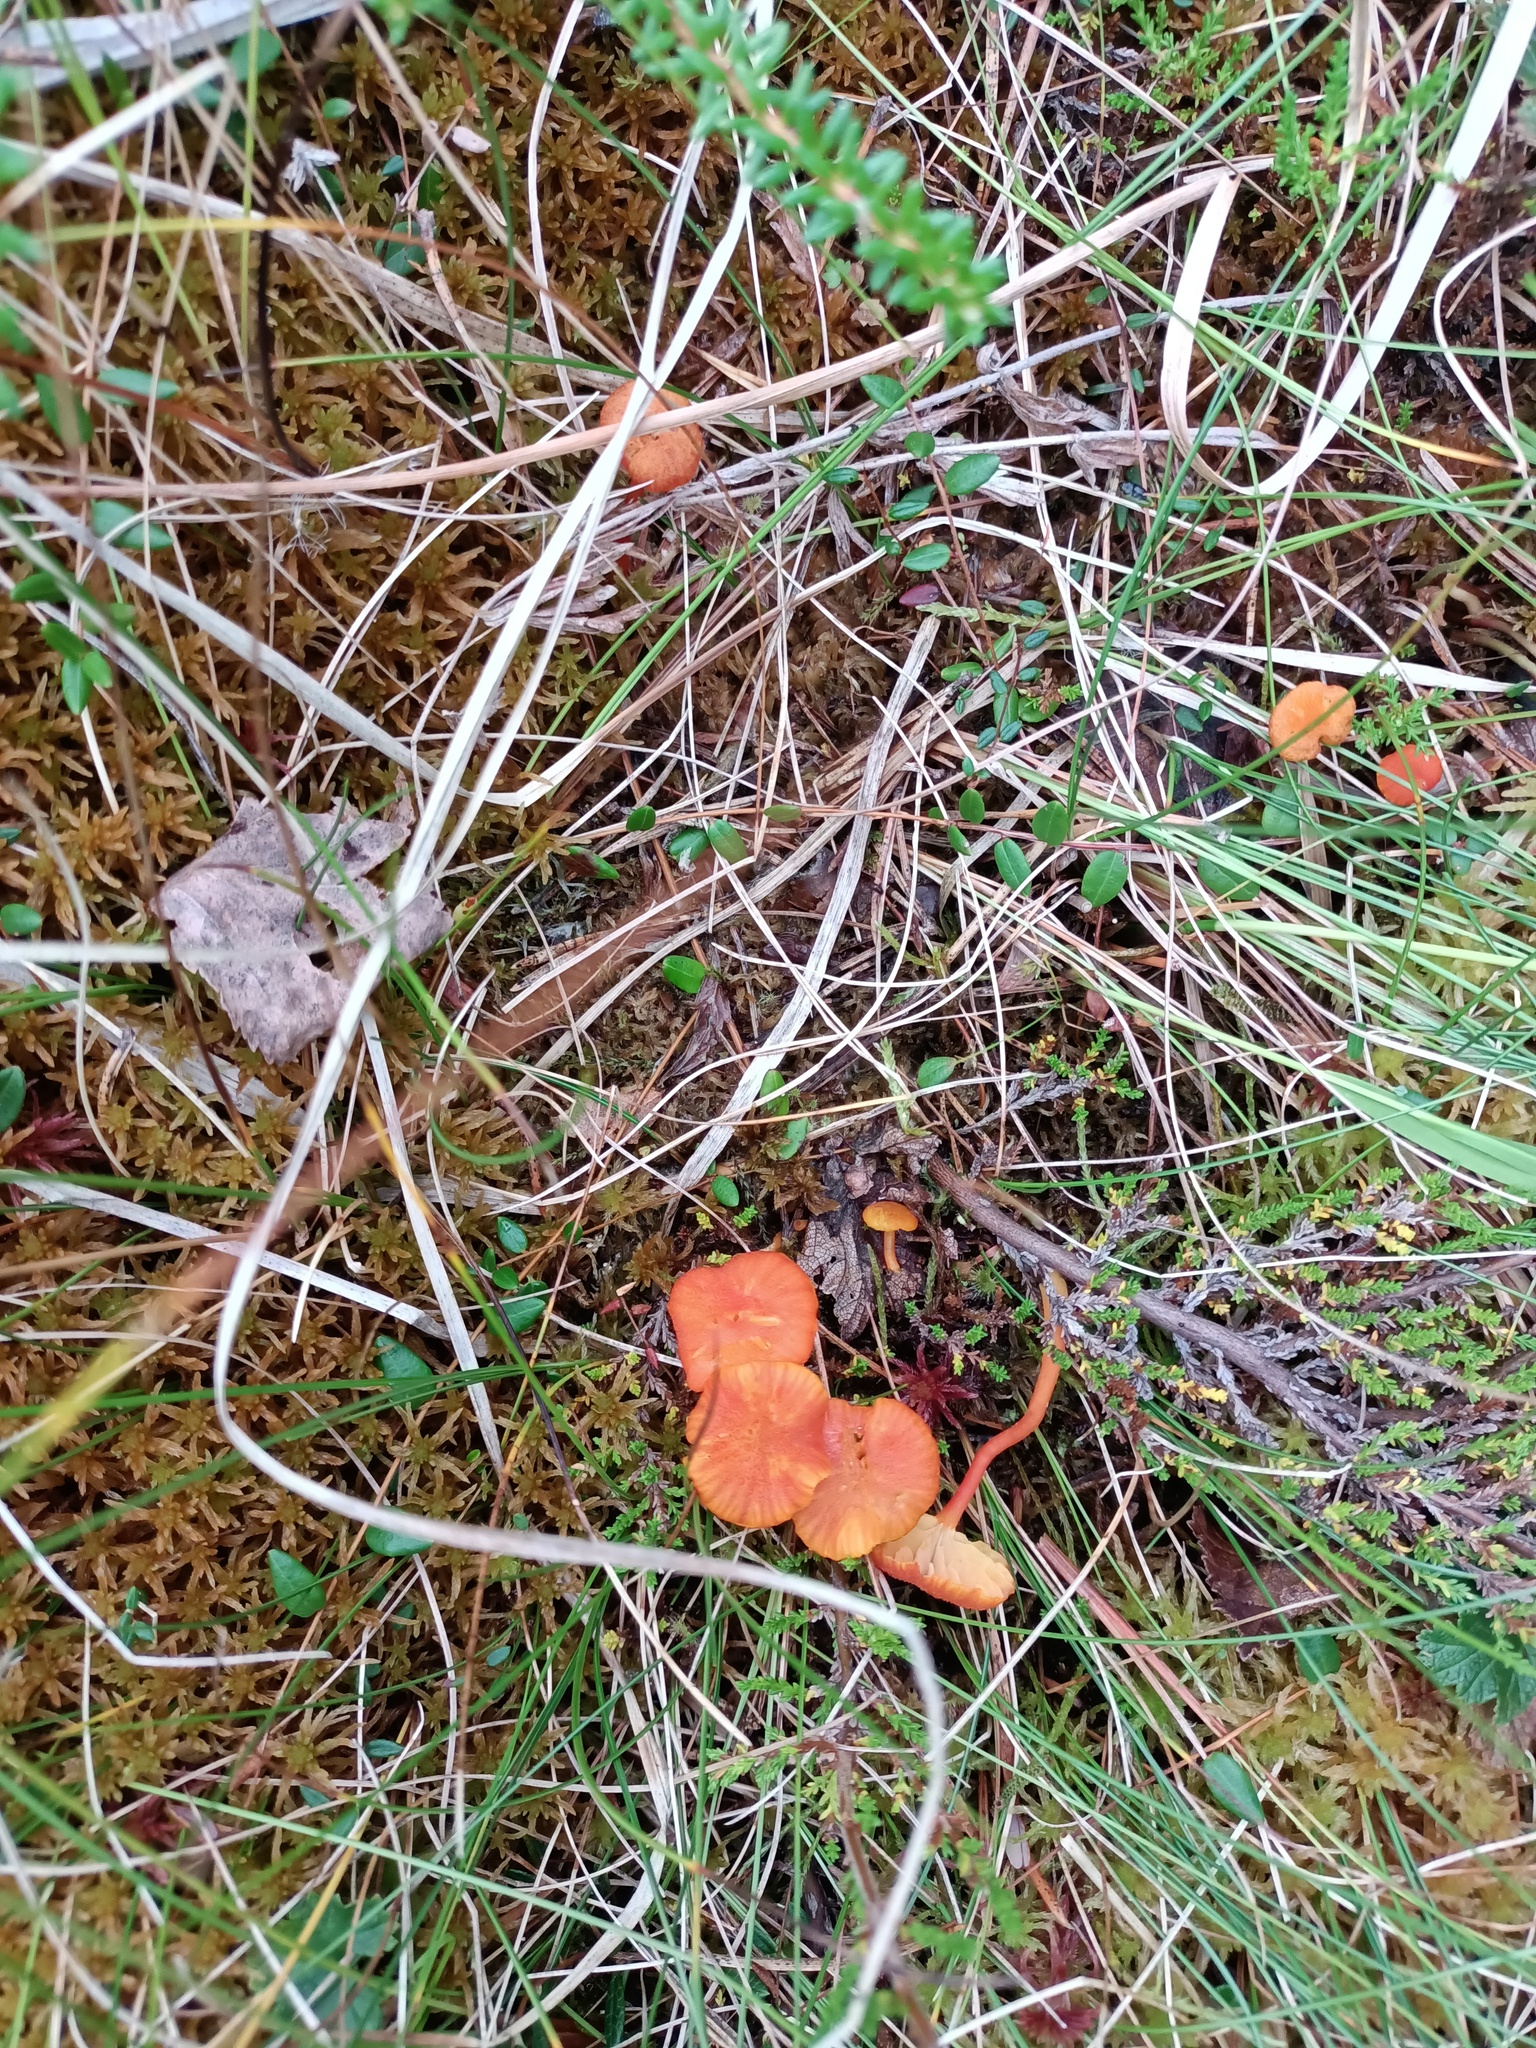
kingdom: Fungi
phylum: Basidiomycota
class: Agaricomycetes
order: Agaricales
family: Hygrophoraceae
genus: Hygrocybe
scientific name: Hygrocybe coccineocrenata
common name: Bog waxcap
